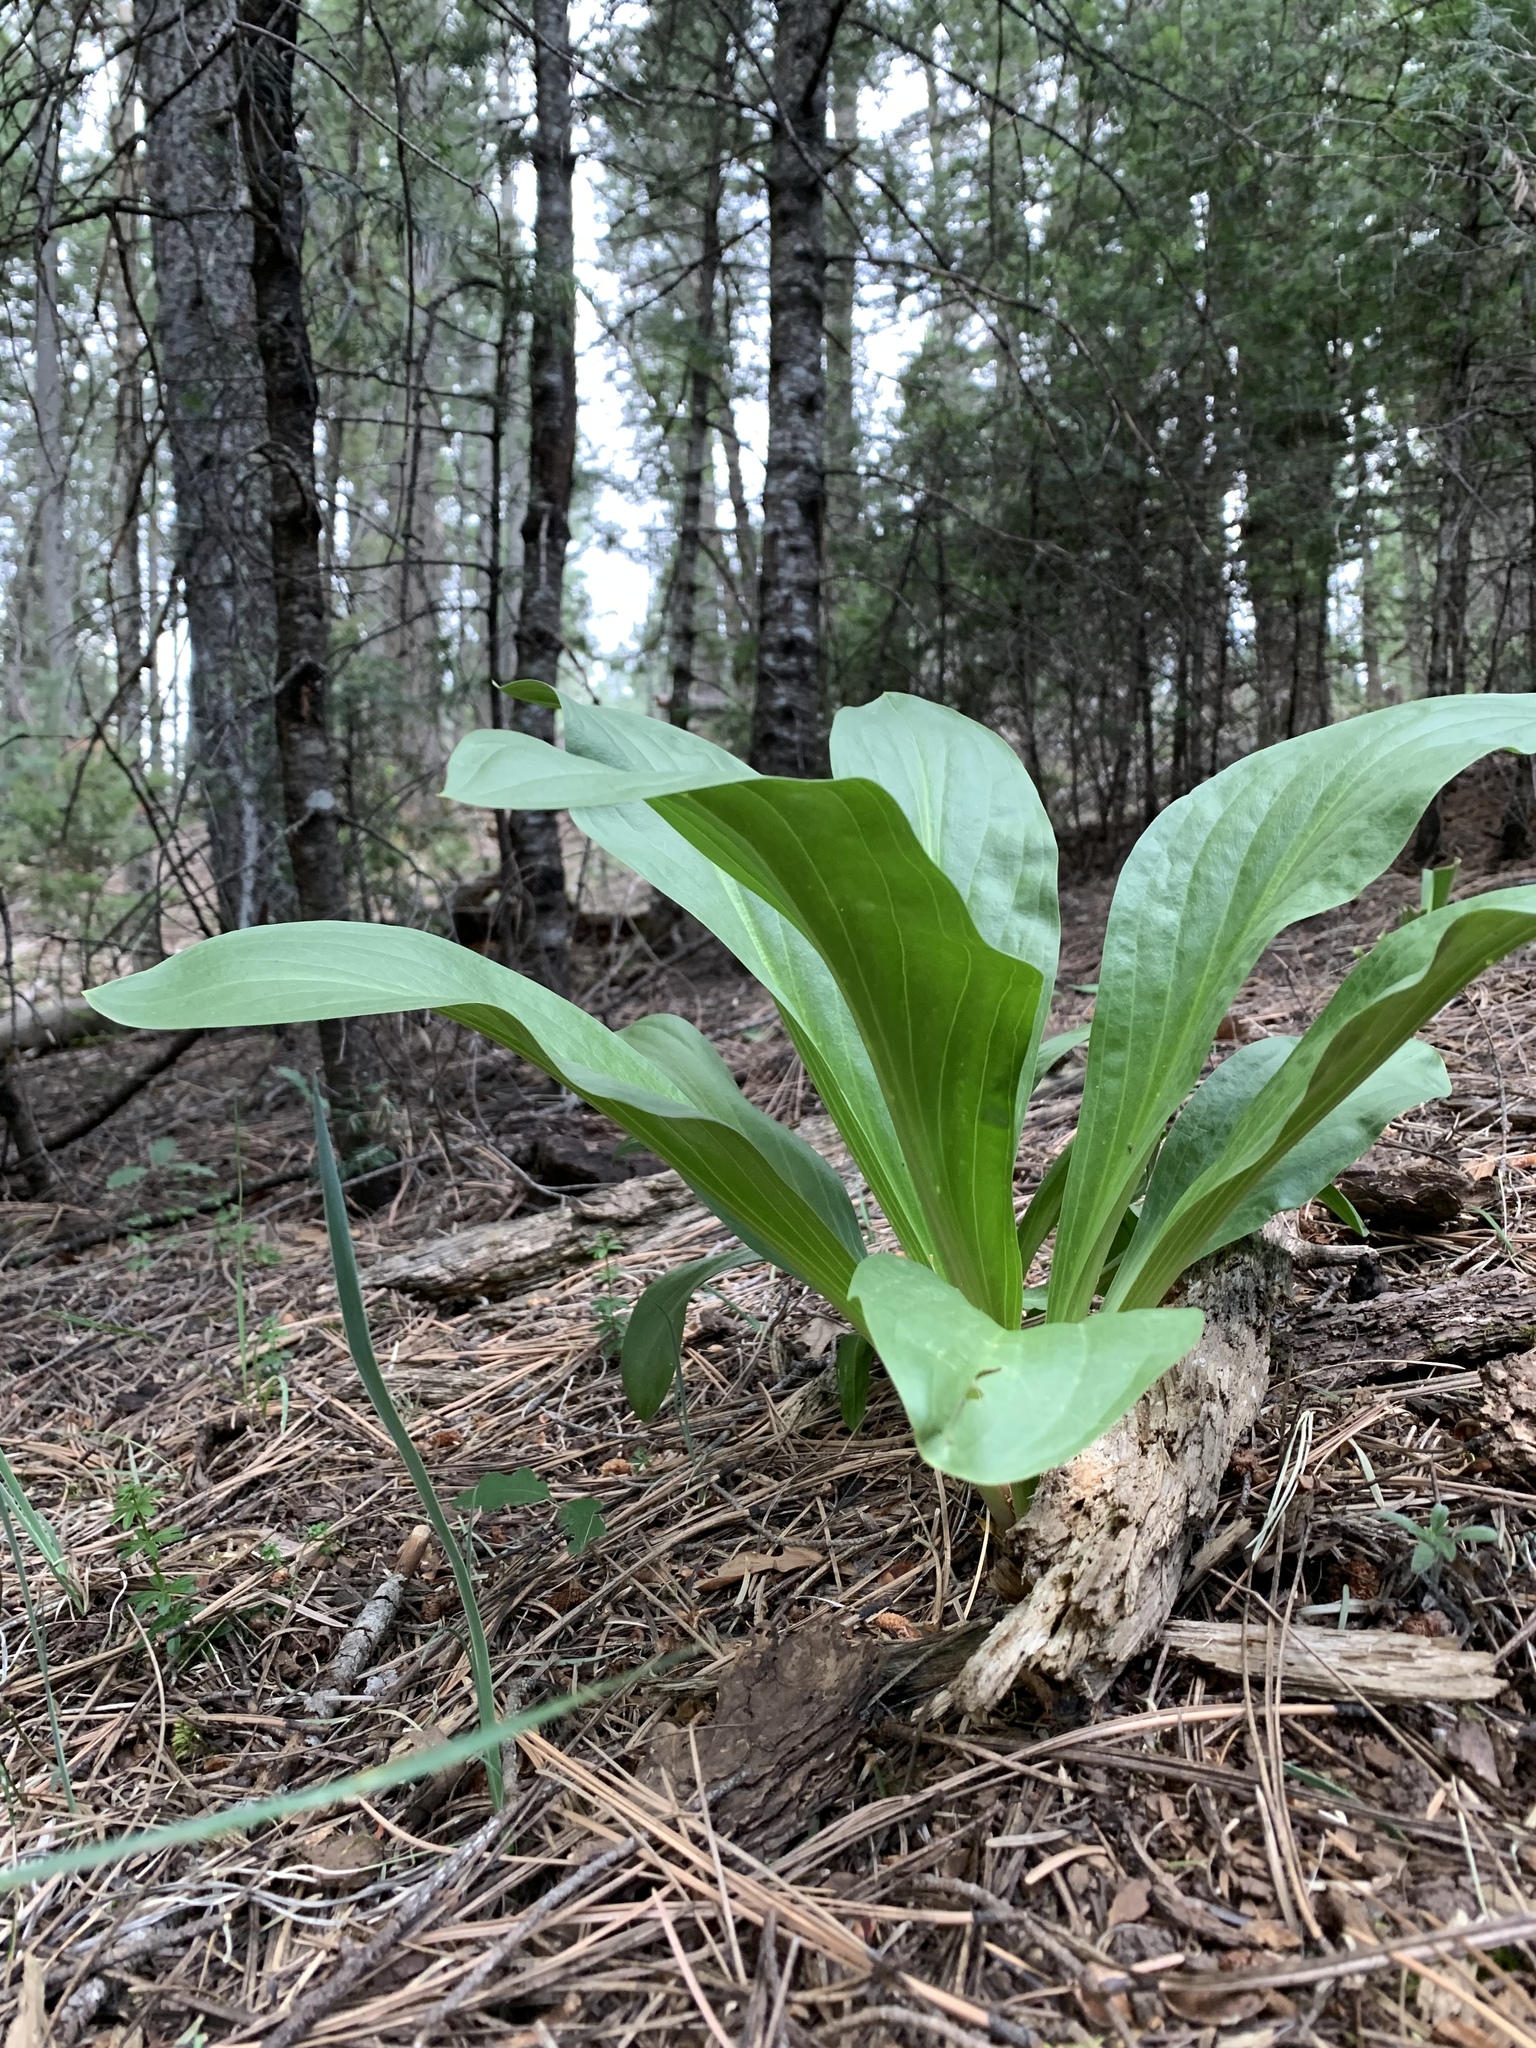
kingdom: Plantae
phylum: Tracheophyta
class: Magnoliopsida
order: Gentianales
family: Gentianaceae
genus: Frasera
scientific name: Frasera speciosa
